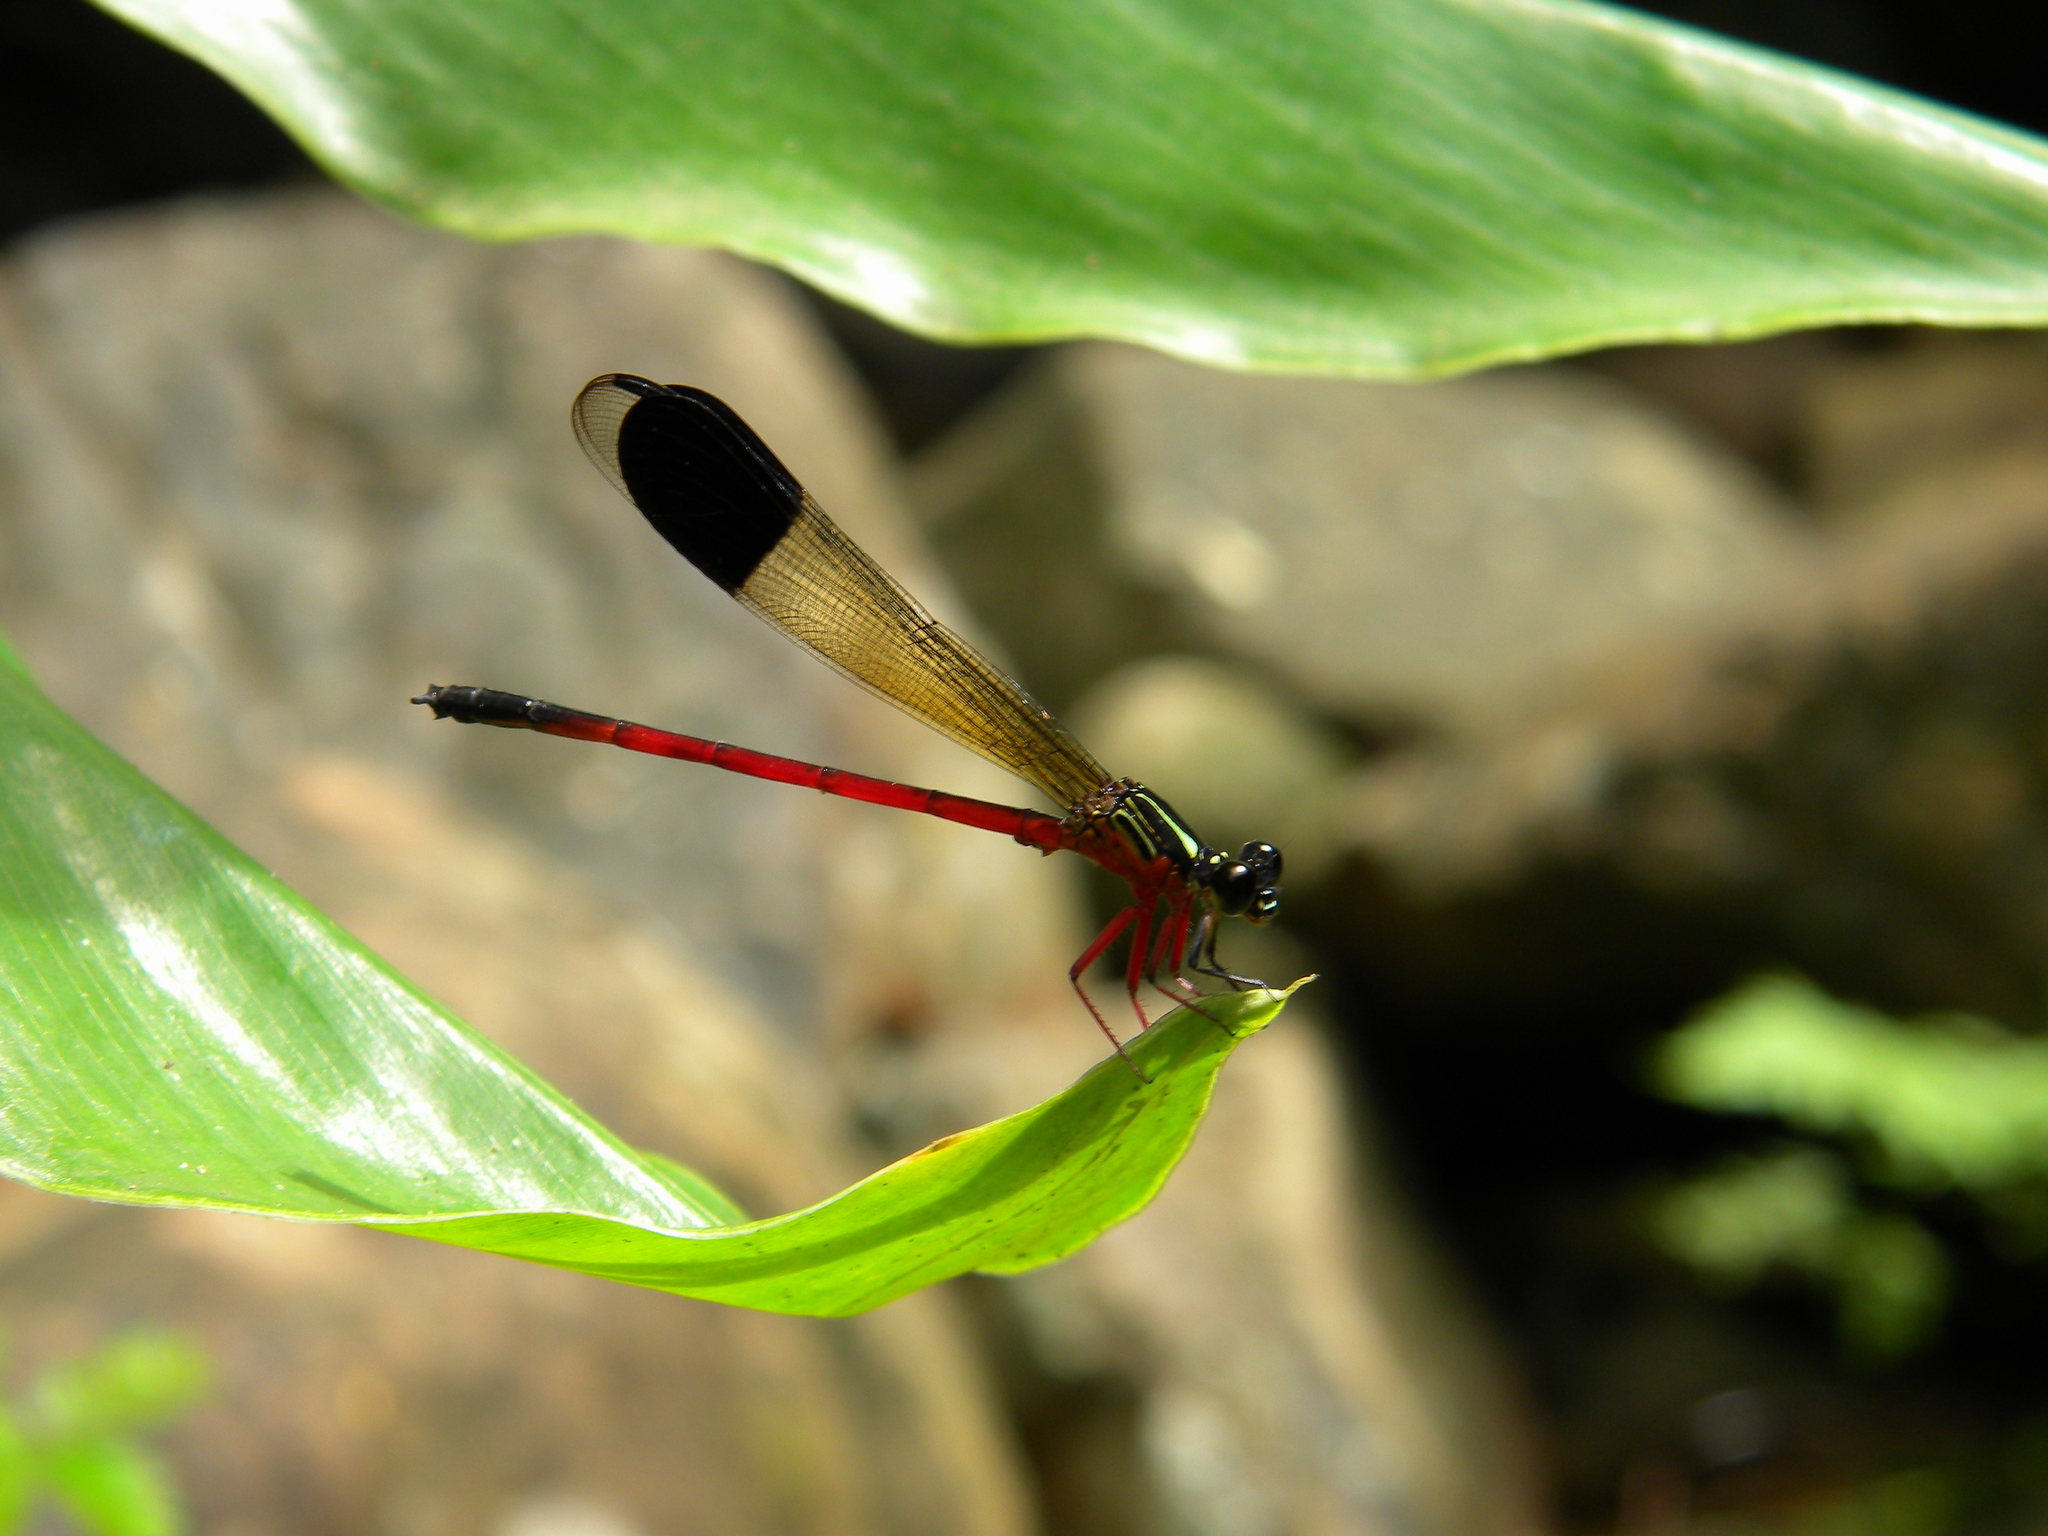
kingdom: Animalia
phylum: Arthropoda
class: Insecta
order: Odonata
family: Euphaeidae
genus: Euphaea
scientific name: Euphaea fraseri
